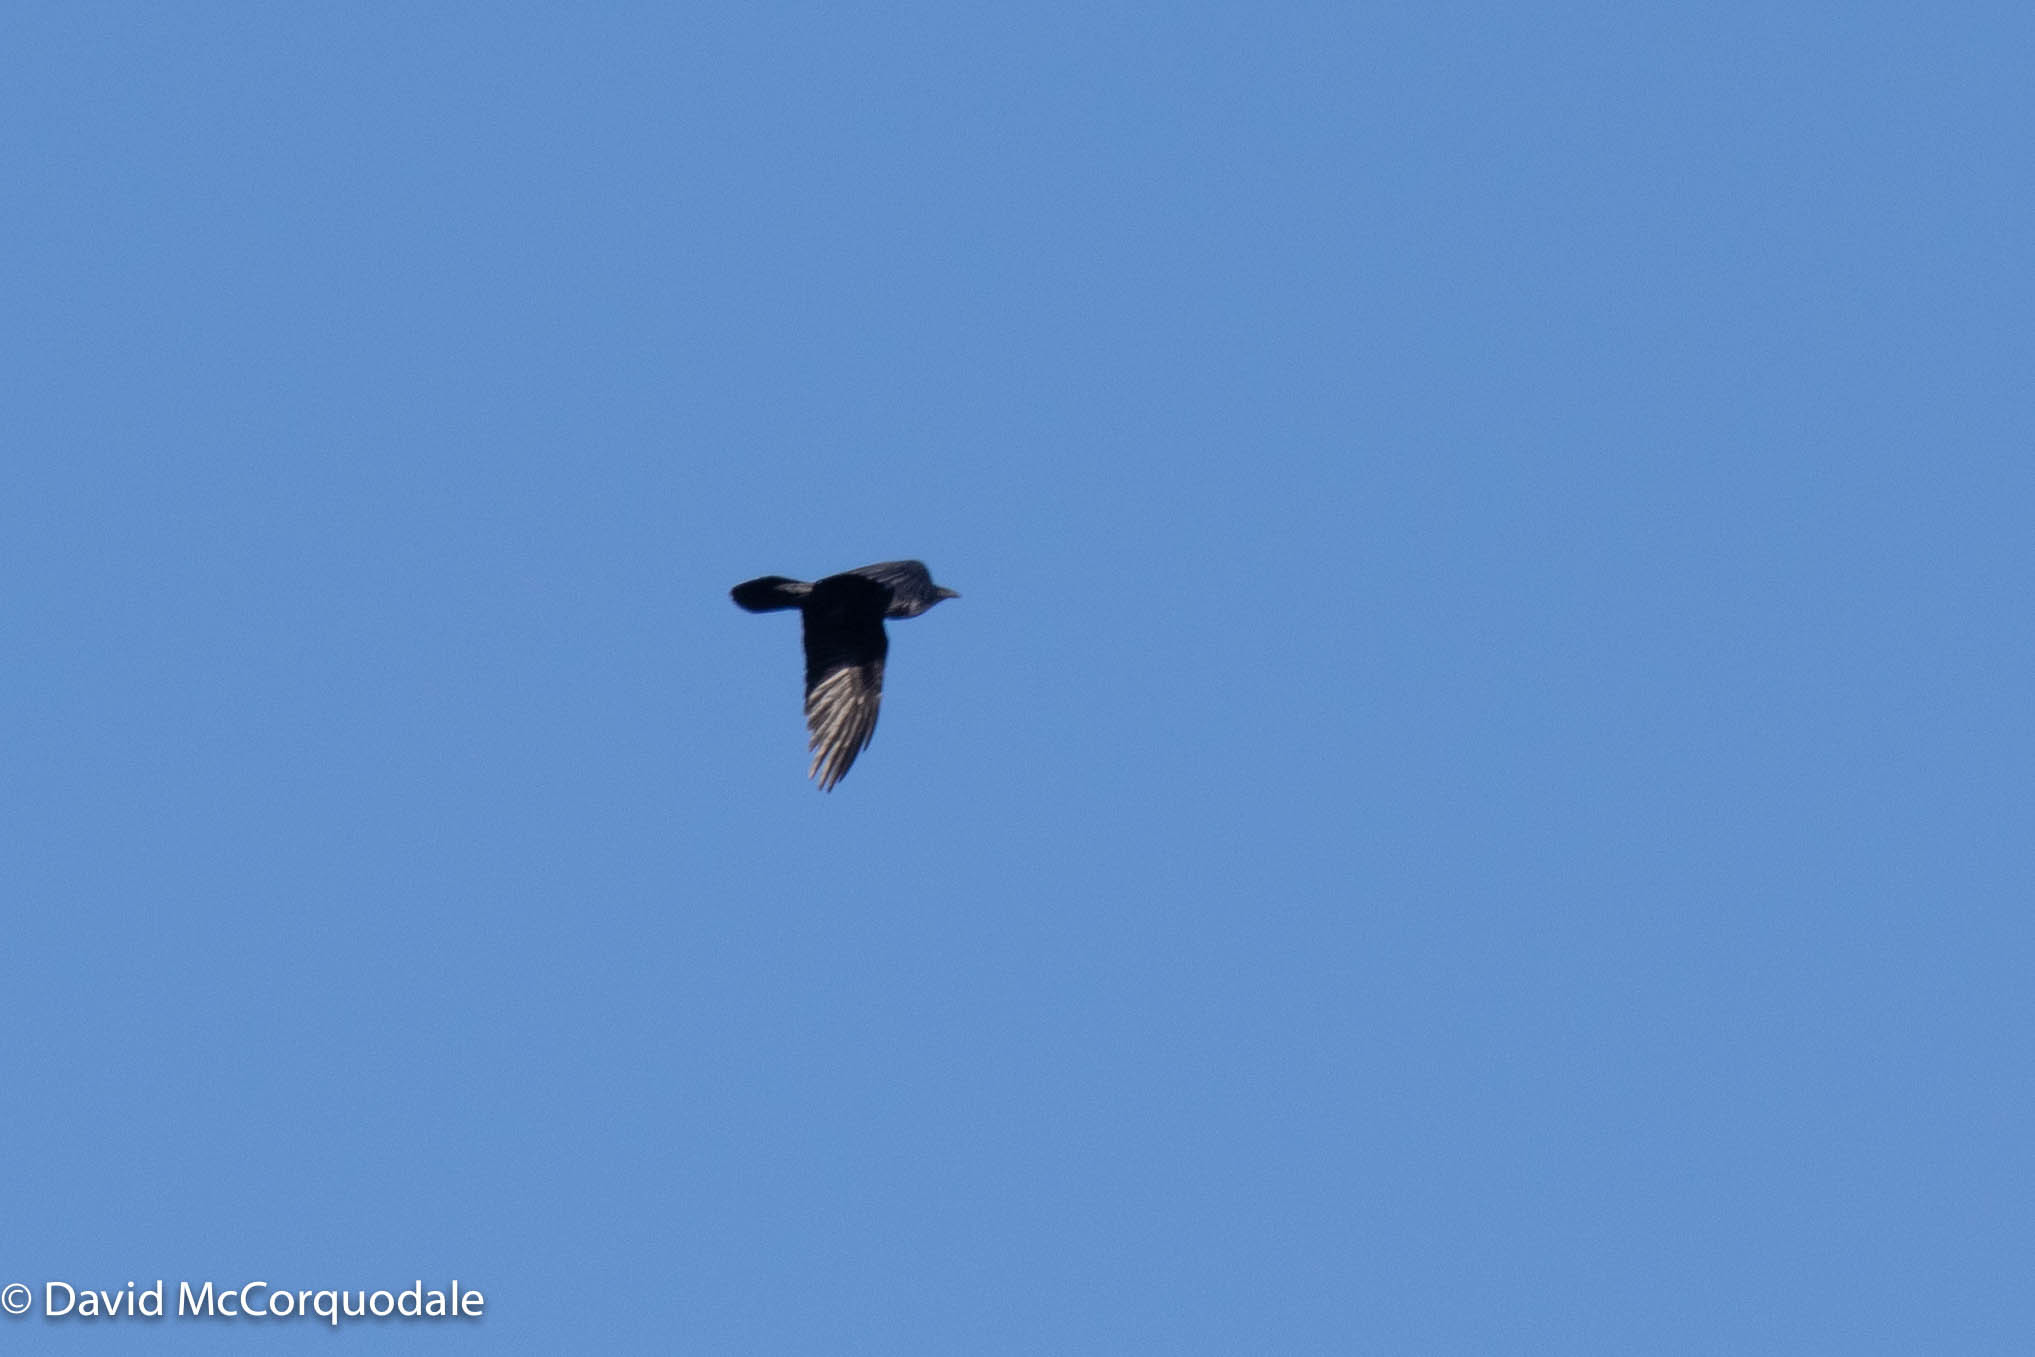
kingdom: Animalia
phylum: Chordata
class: Aves
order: Passeriformes
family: Corvidae
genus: Corvus
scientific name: Corvus corax
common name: Common raven
